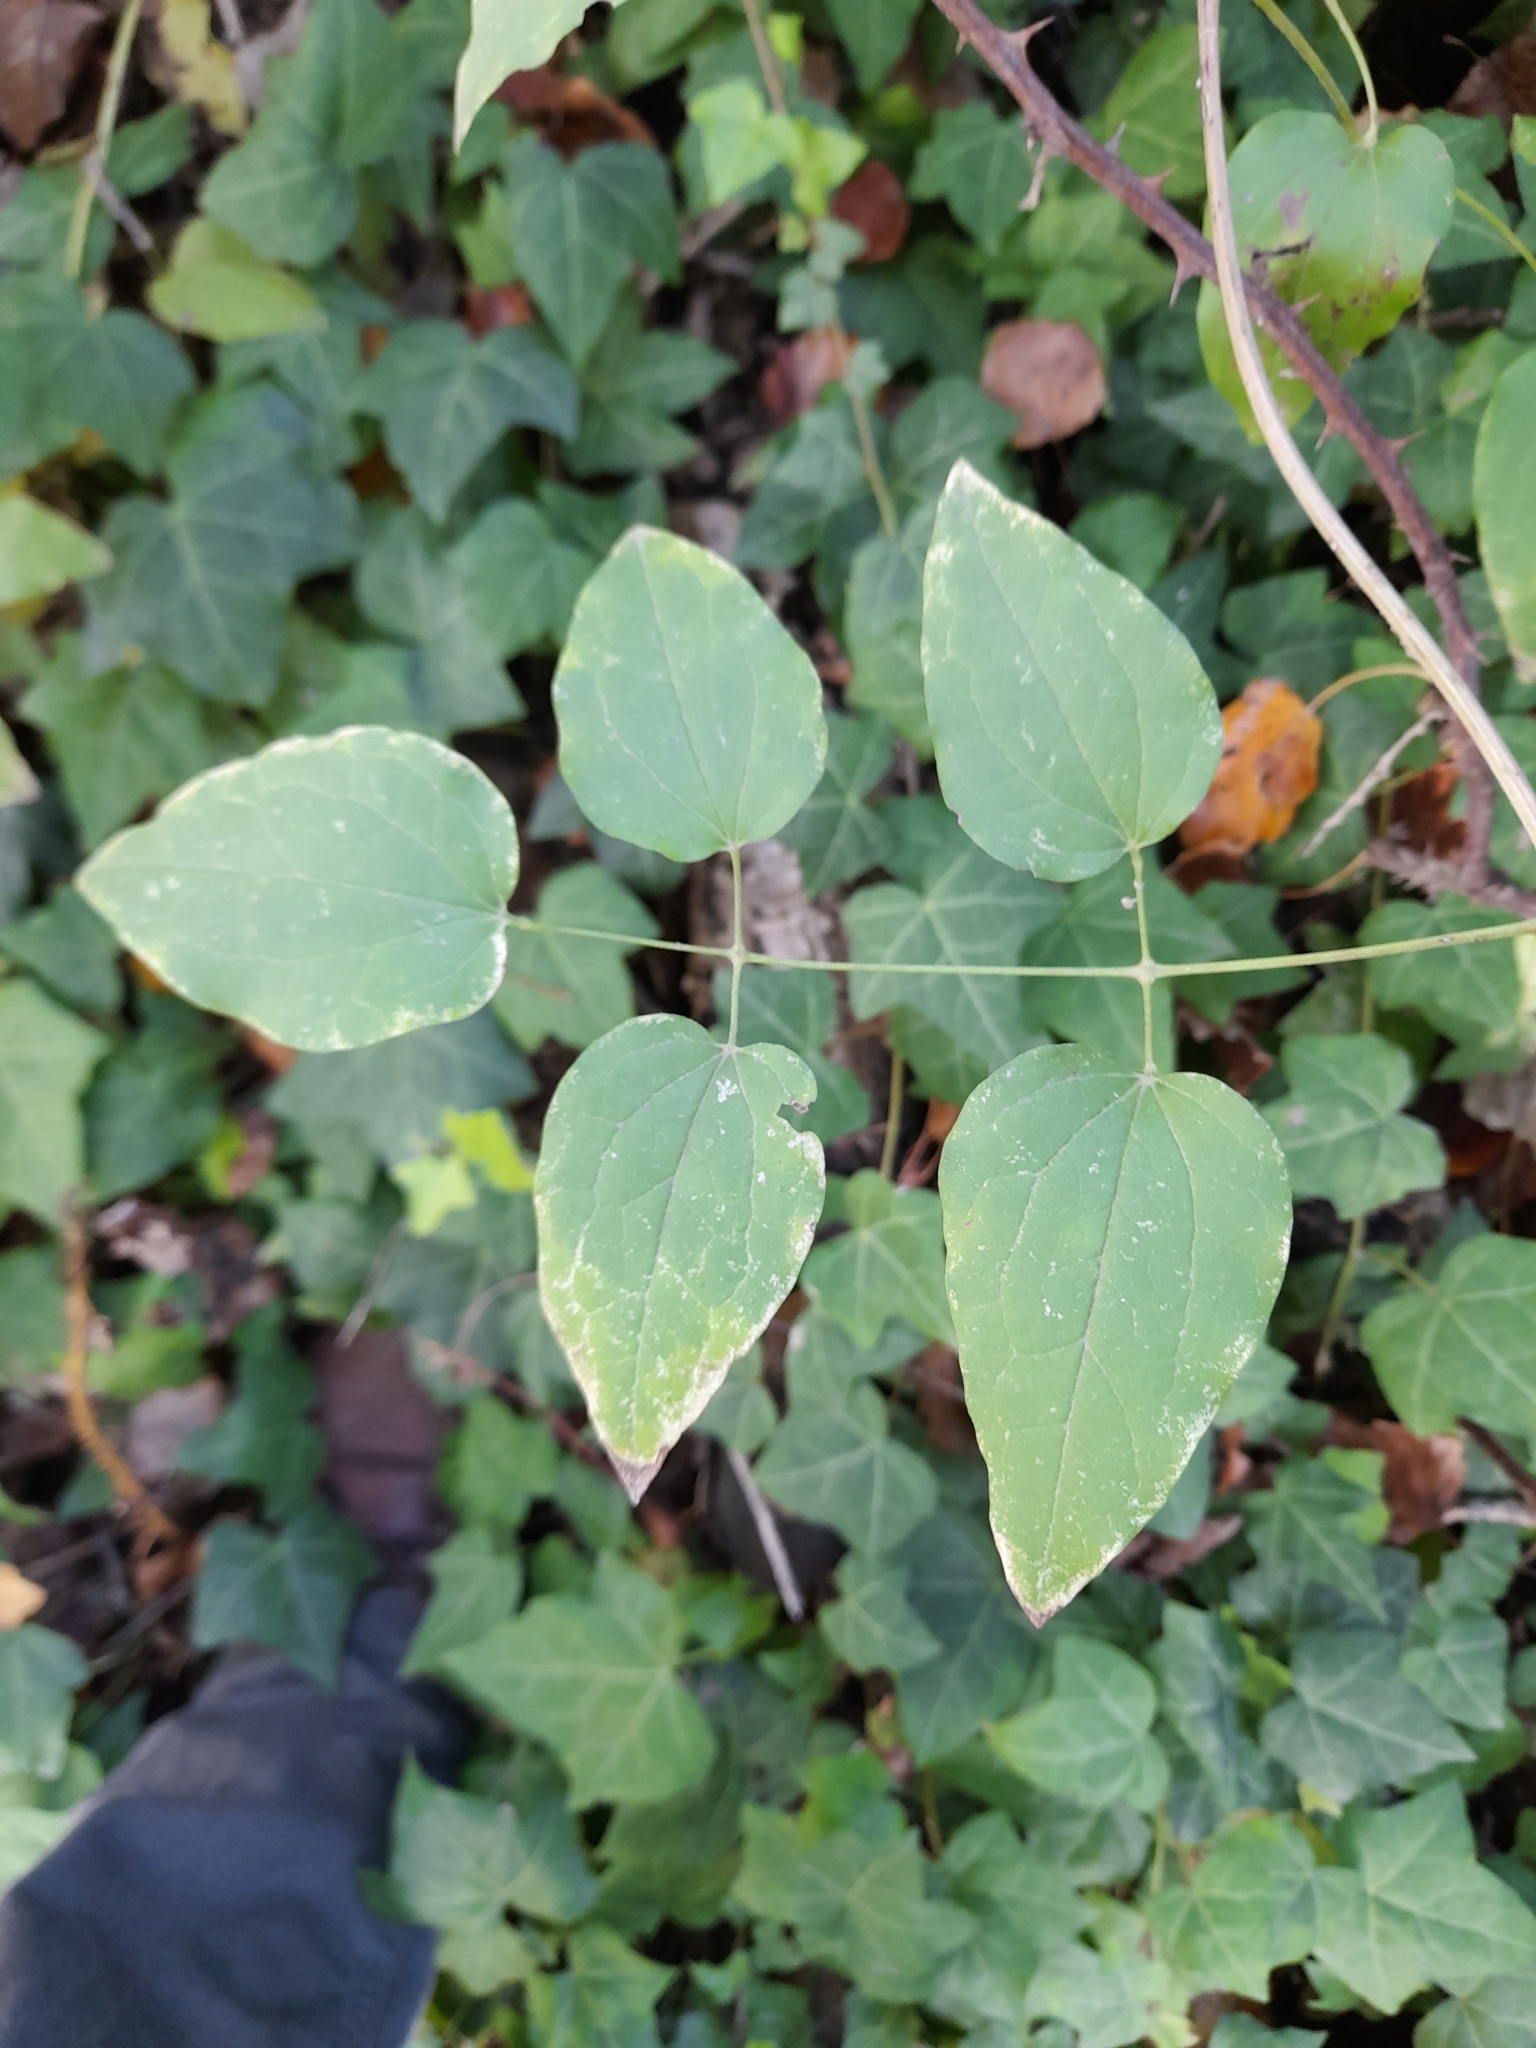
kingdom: Plantae
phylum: Tracheophyta
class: Magnoliopsida
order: Ranunculales
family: Ranunculaceae
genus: Clematis
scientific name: Clematis vitalba
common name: Evergreen clematis
